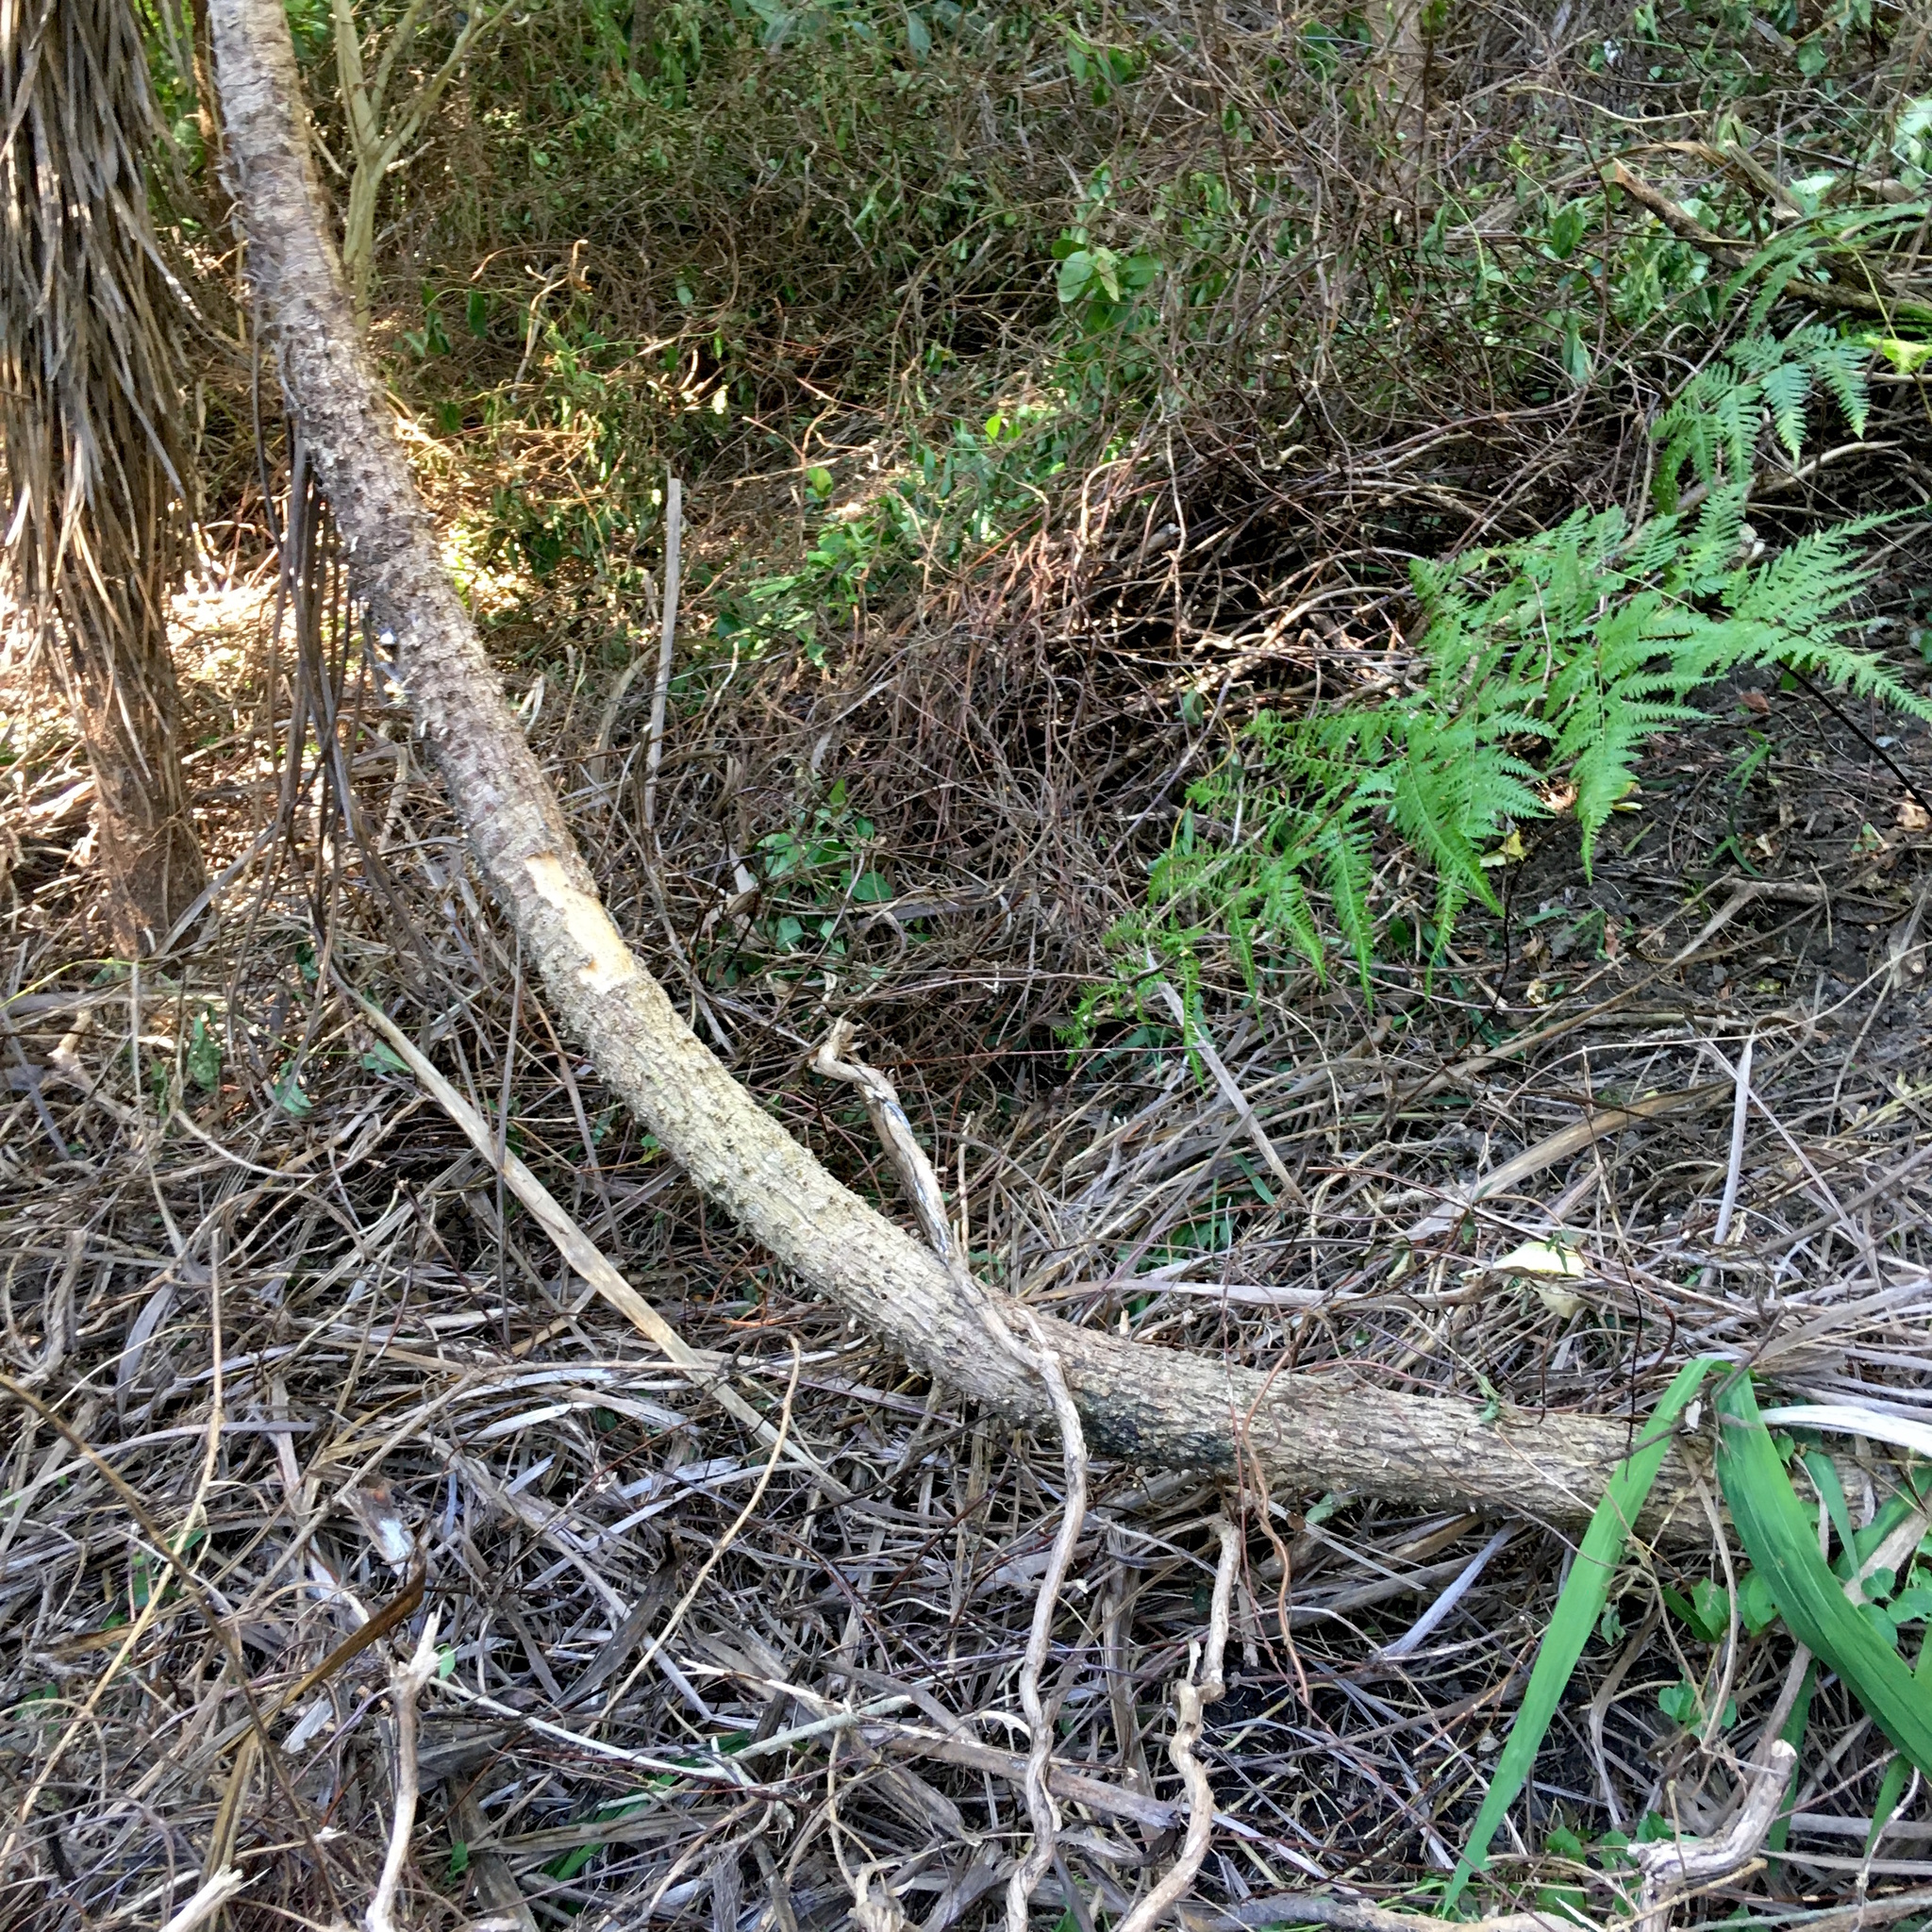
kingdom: Plantae
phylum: Tracheophyta
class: Liliopsida
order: Asparagales
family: Asparagaceae
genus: Cordyline
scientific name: Cordyline australis
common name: Cabbage-palm
